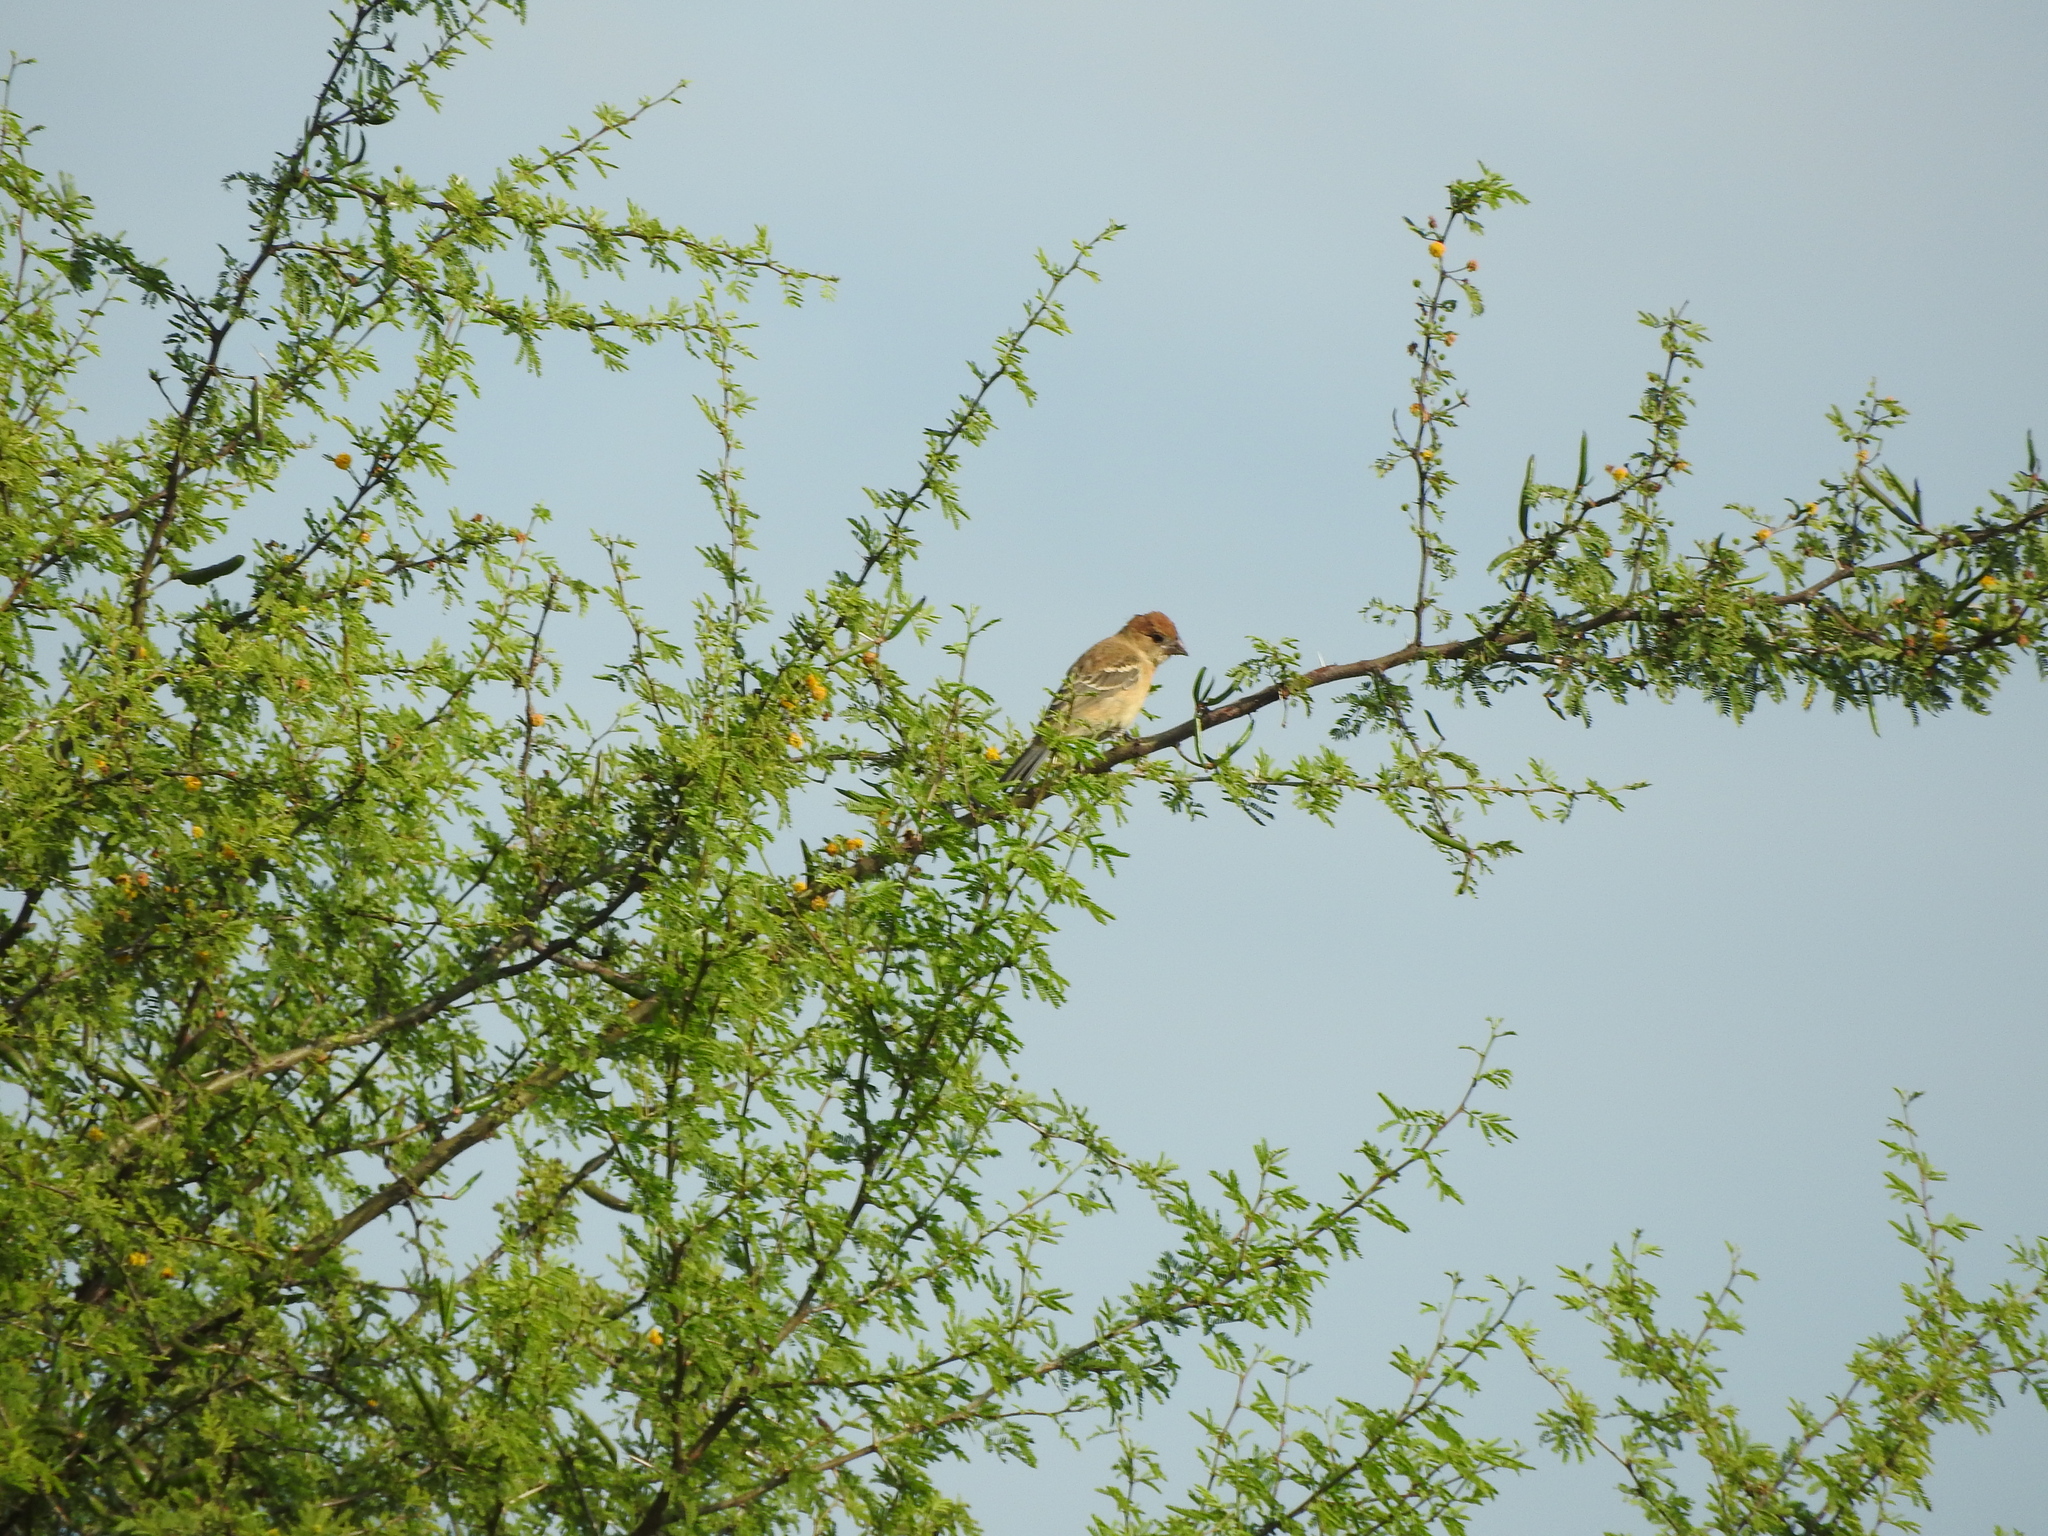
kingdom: Animalia
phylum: Chordata
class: Aves
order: Passeriformes
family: Cardinalidae
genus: Passerina
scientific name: Passerina caerulea
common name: Blue grosbeak
